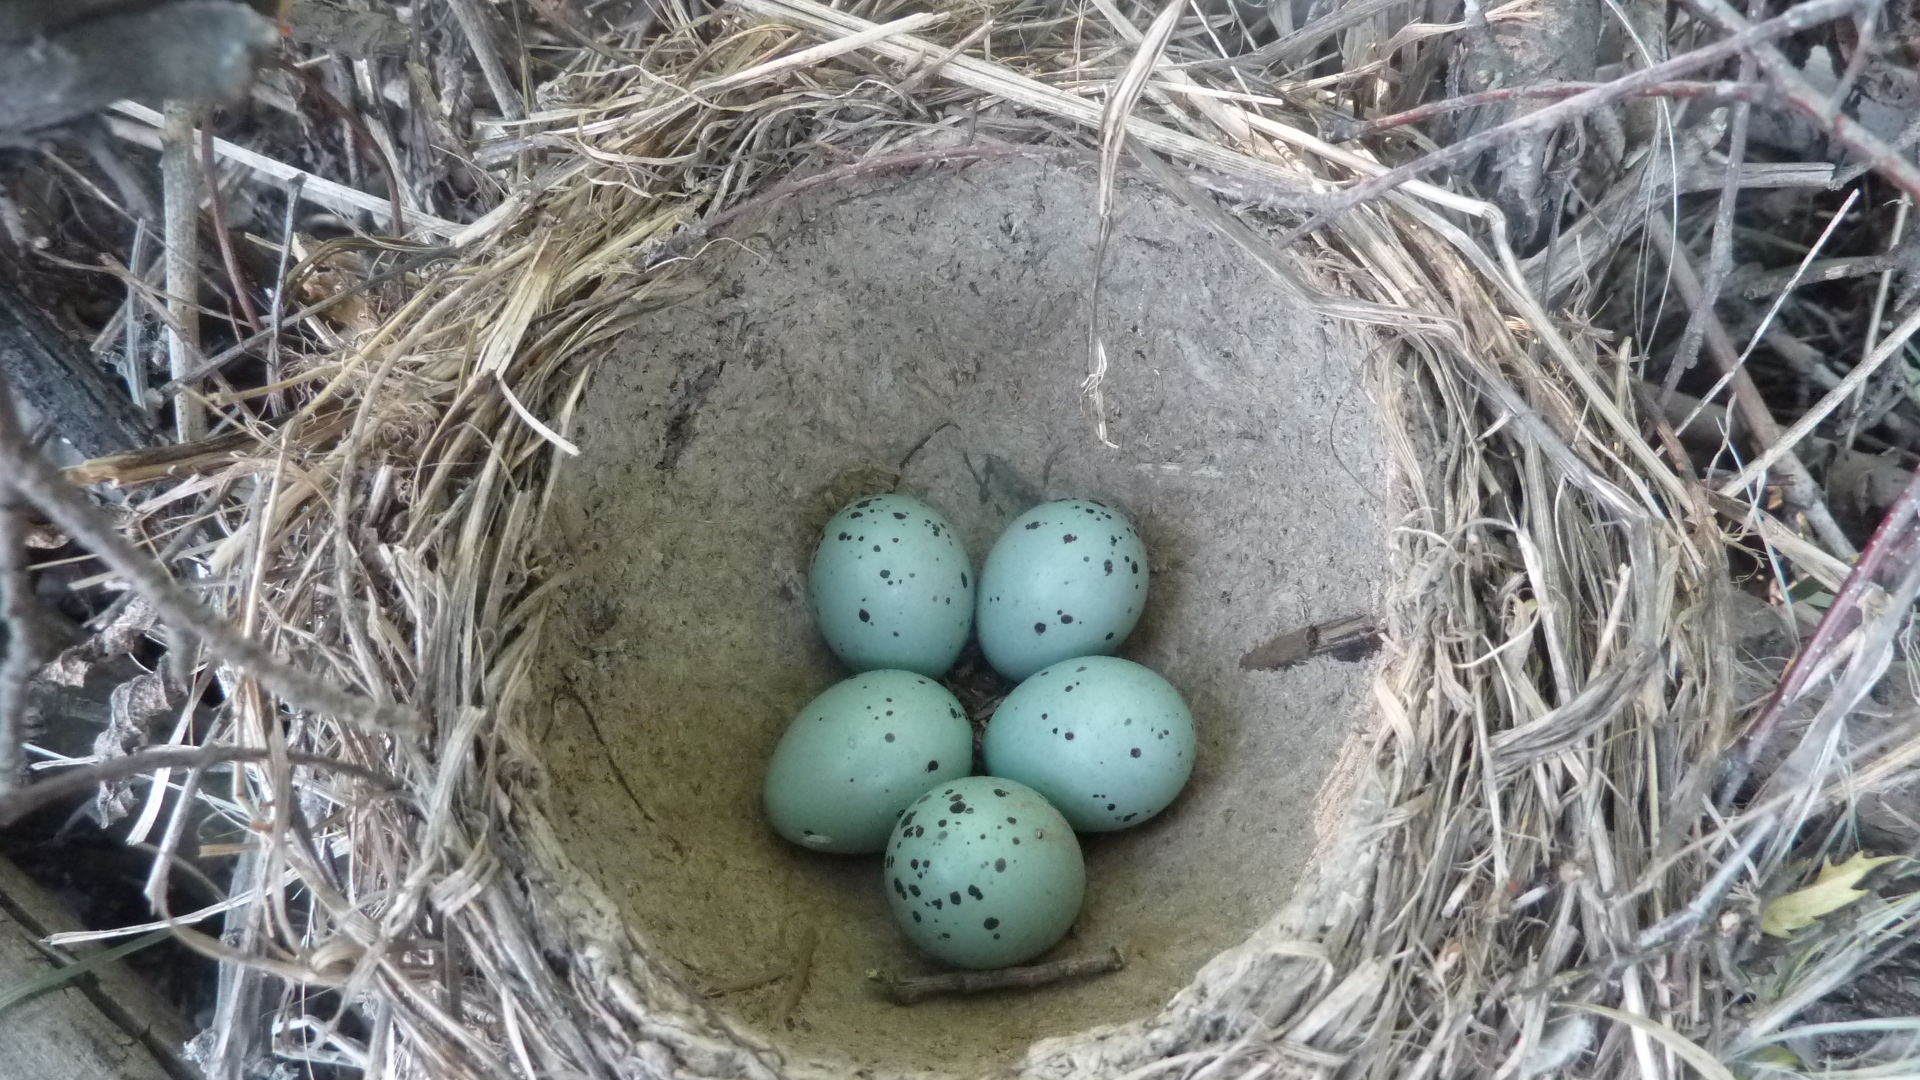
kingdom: Animalia
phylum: Chordata
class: Aves
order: Passeriformes
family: Turdidae
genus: Turdus
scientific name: Turdus philomelos
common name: Song thrush
